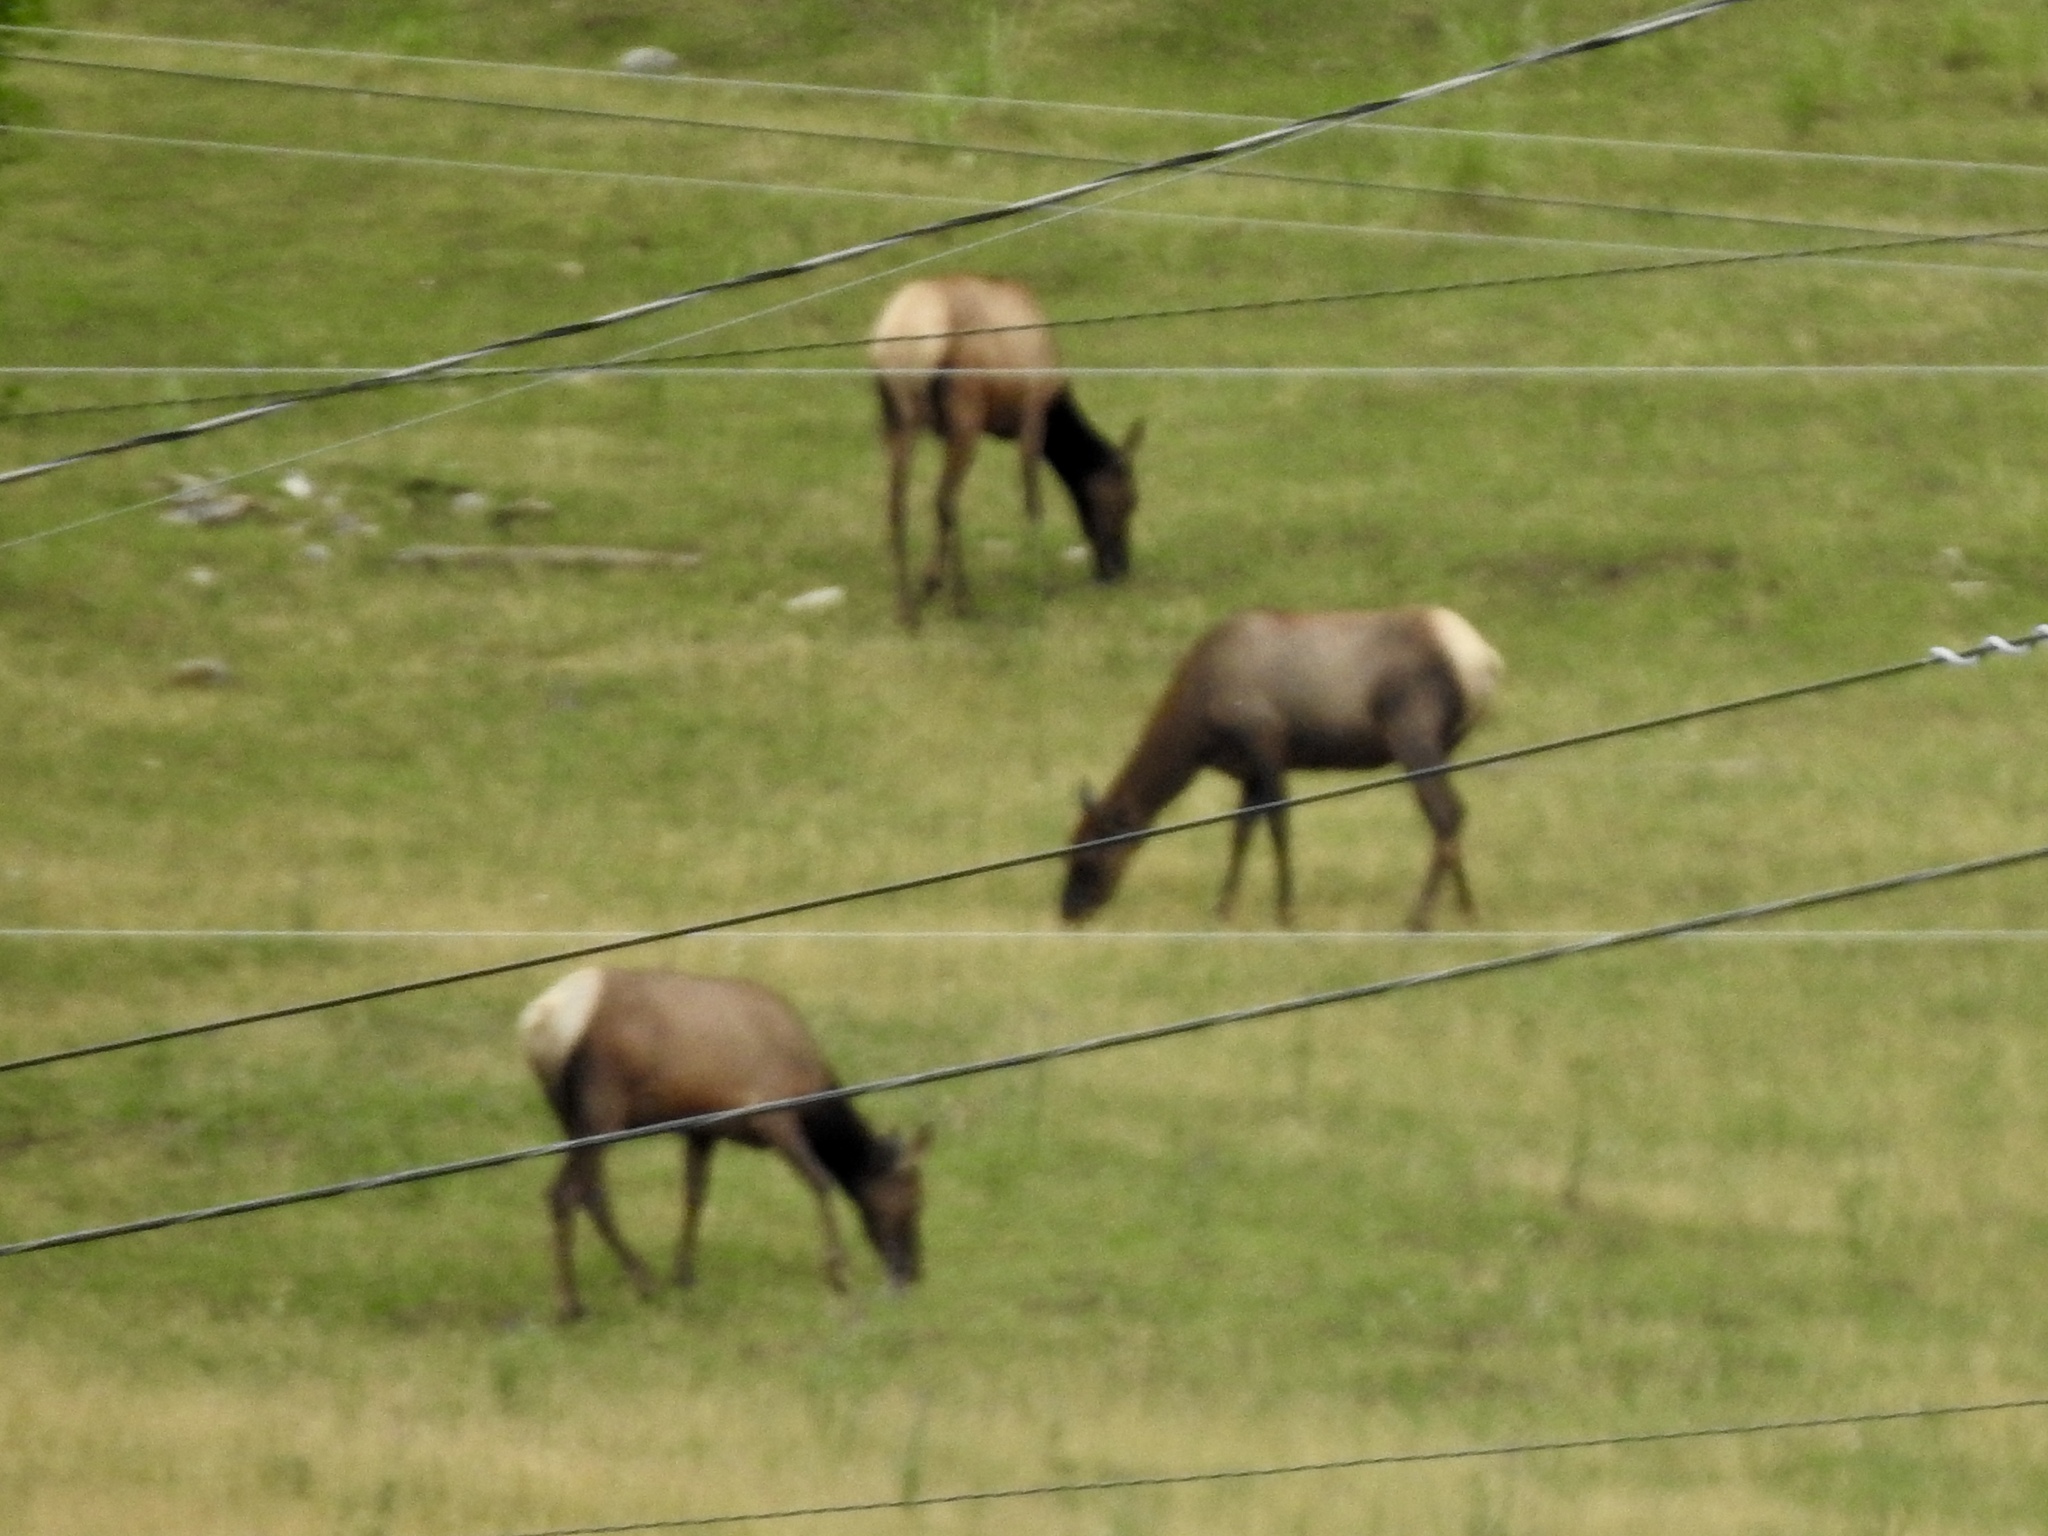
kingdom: Animalia
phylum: Chordata
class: Mammalia
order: Artiodactyla
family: Cervidae
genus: Cervus
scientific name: Cervus elaphus
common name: Red deer
